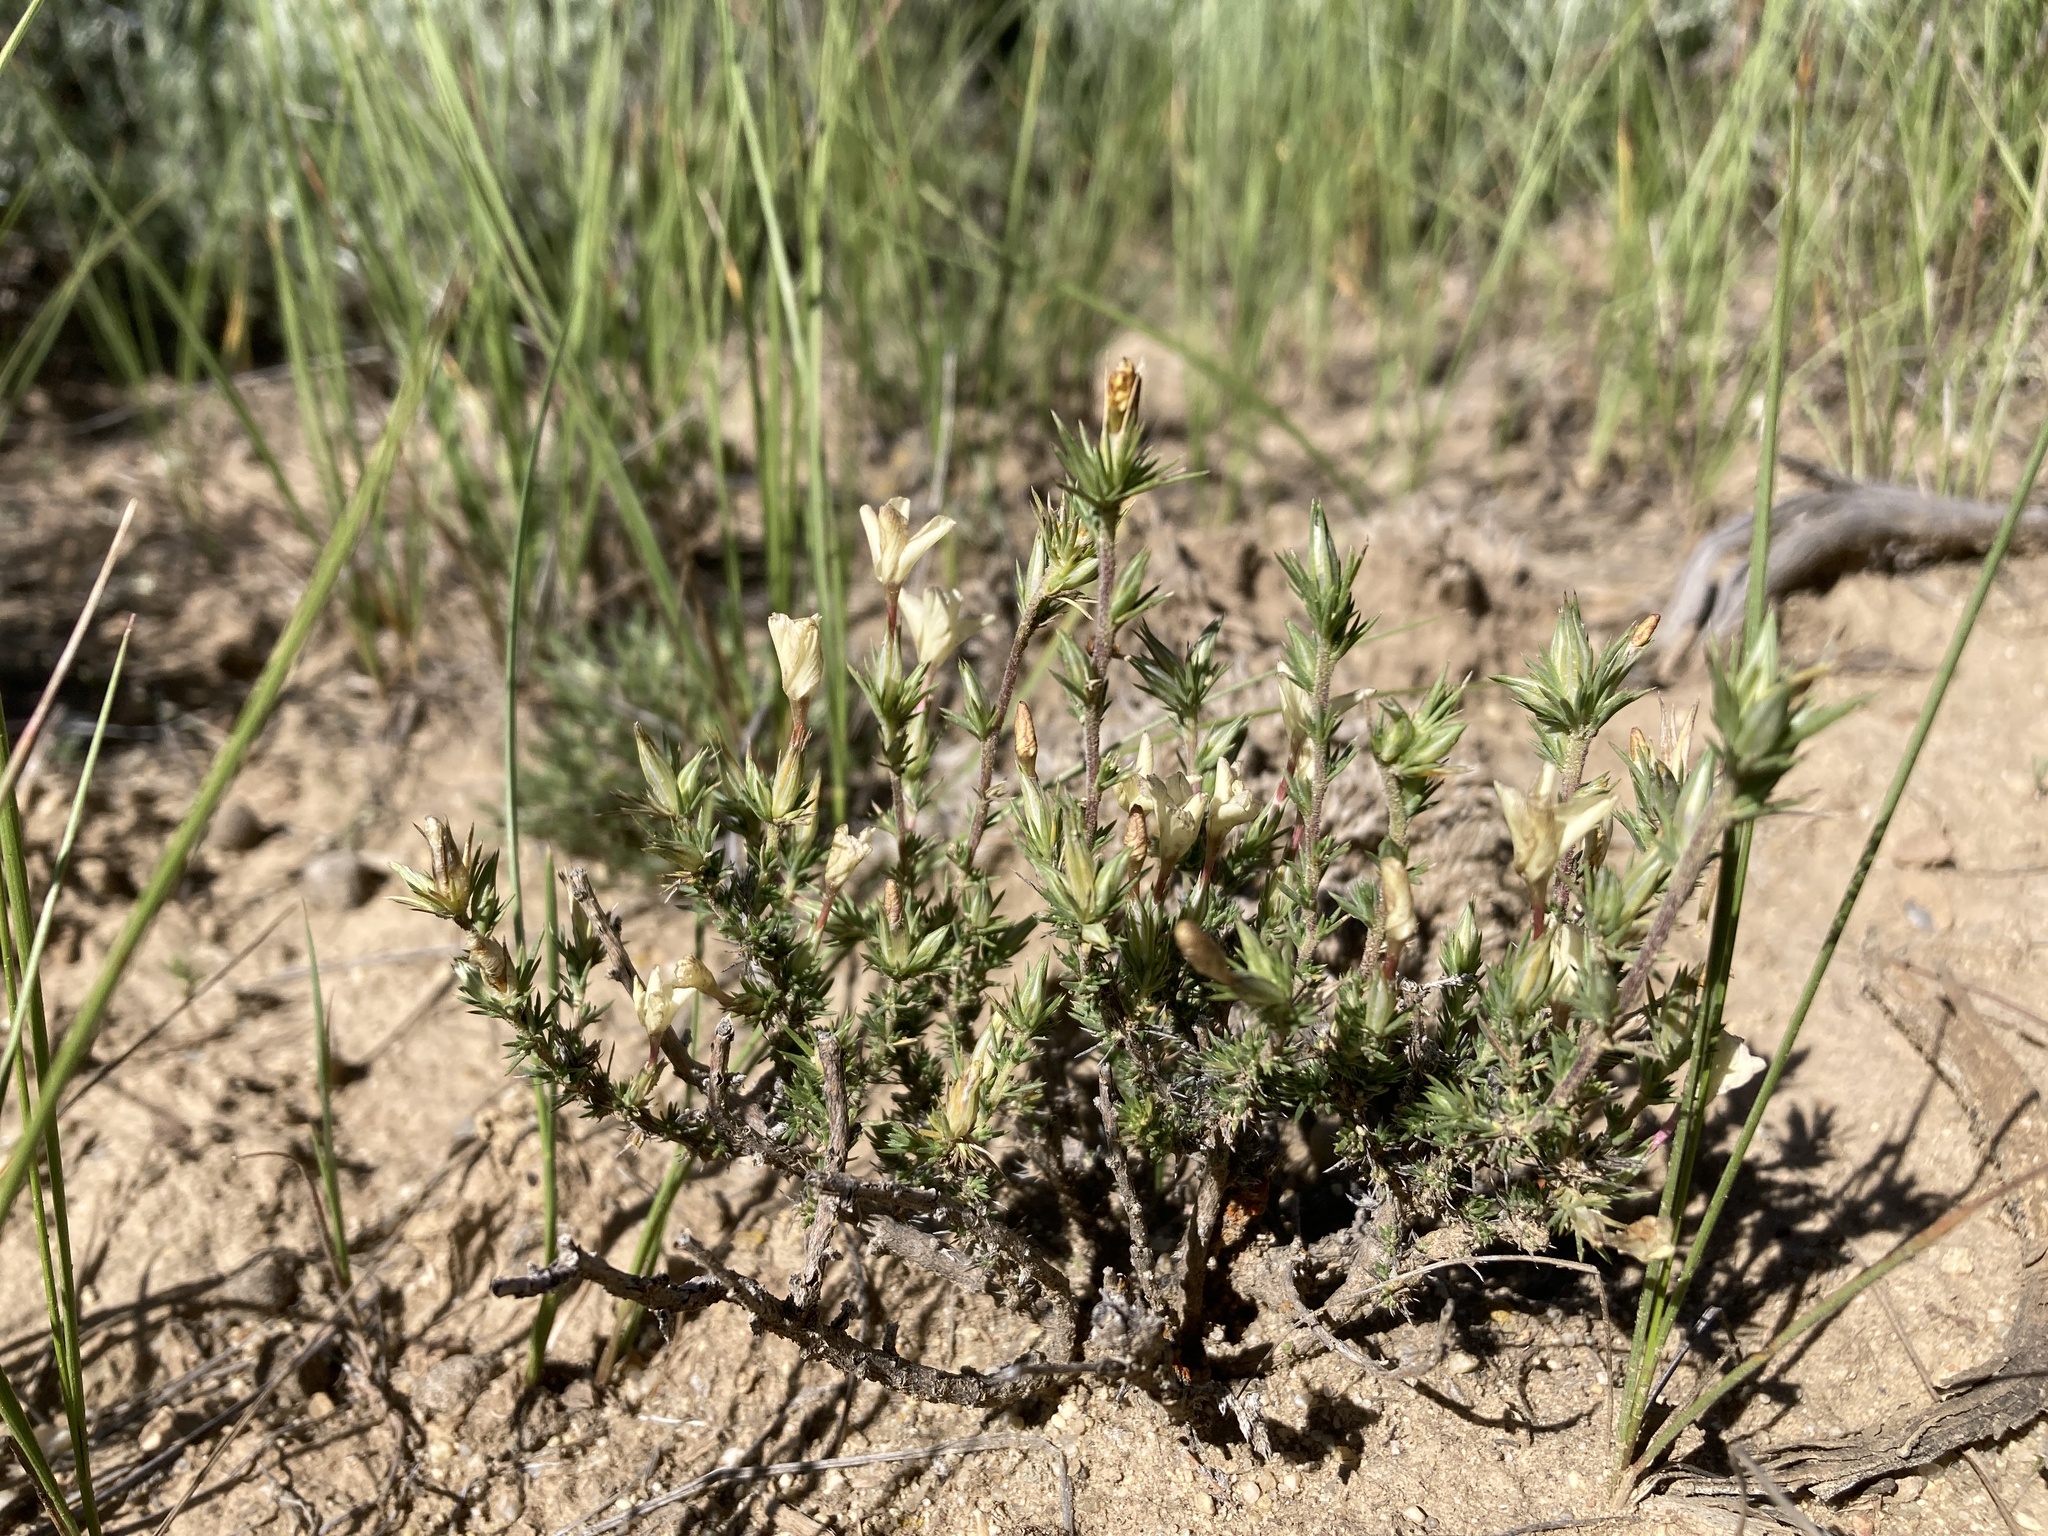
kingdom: Plantae
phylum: Tracheophyta
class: Magnoliopsida
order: Ericales
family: Polemoniaceae
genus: Linanthus
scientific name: Linanthus pungens
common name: Granite prickly phlox
